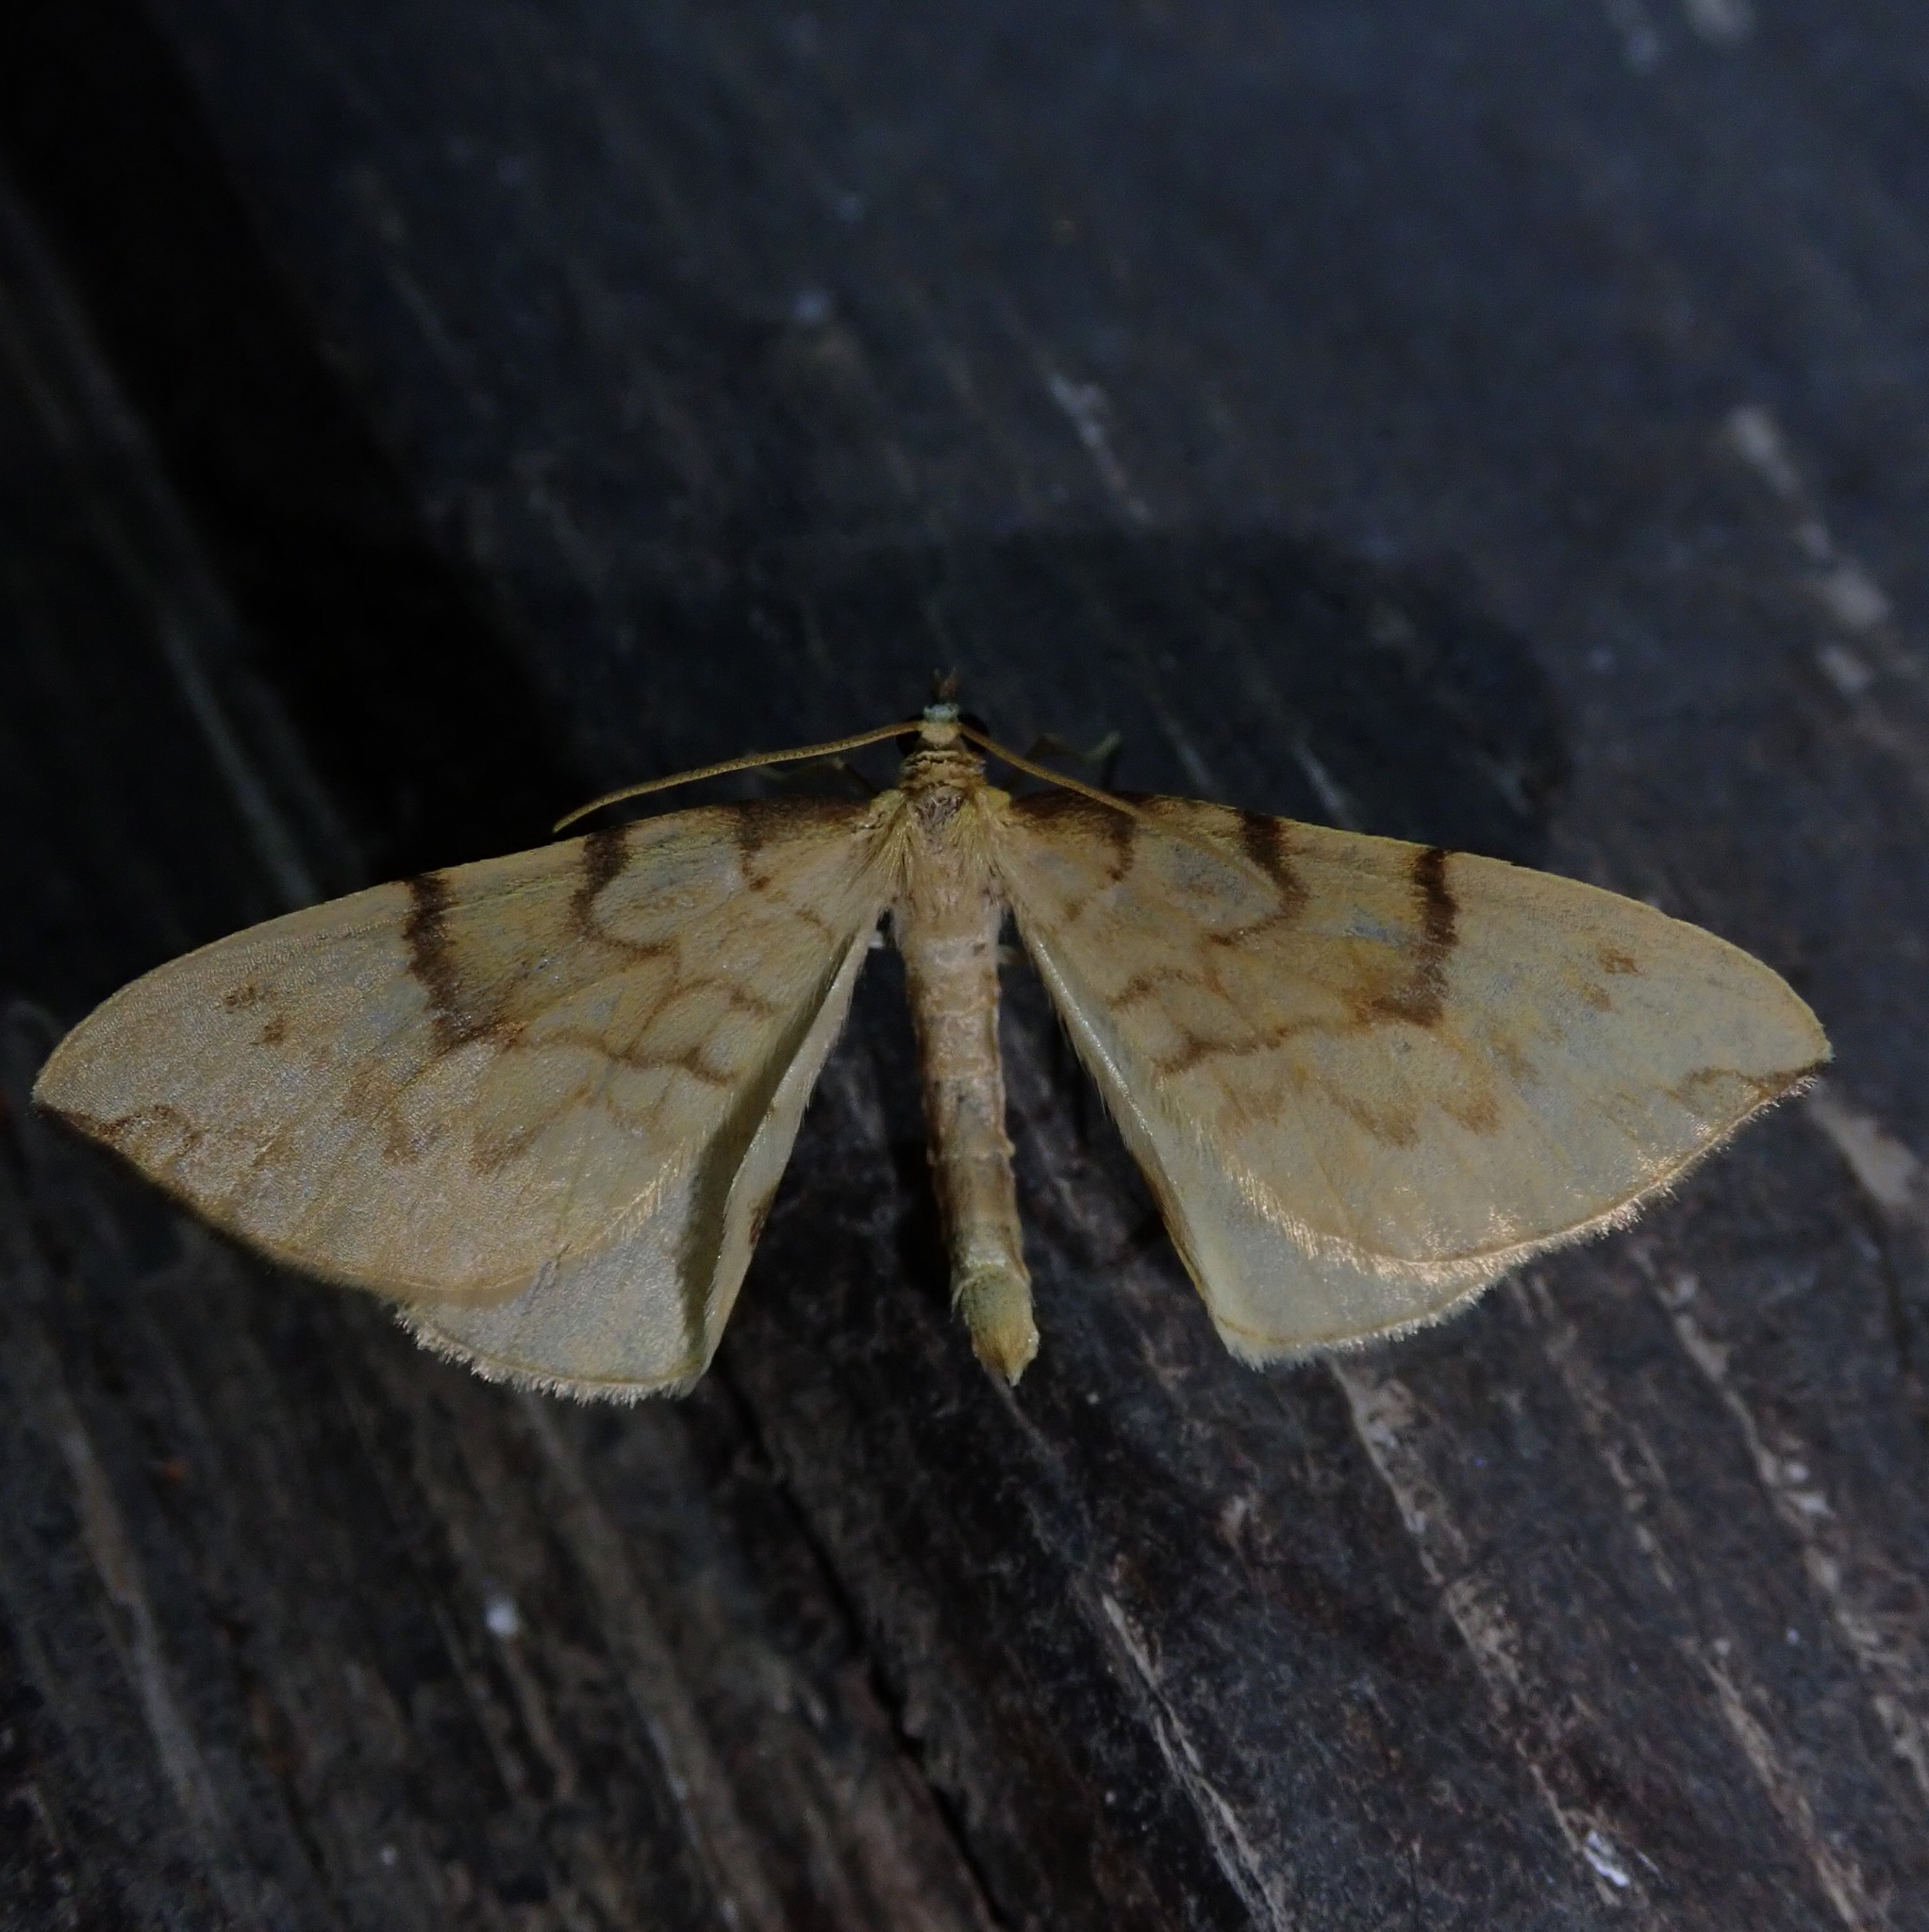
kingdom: Animalia
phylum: Arthropoda
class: Insecta
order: Lepidoptera
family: Geometridae
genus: Eulithis
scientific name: Eulithis pyraliata
